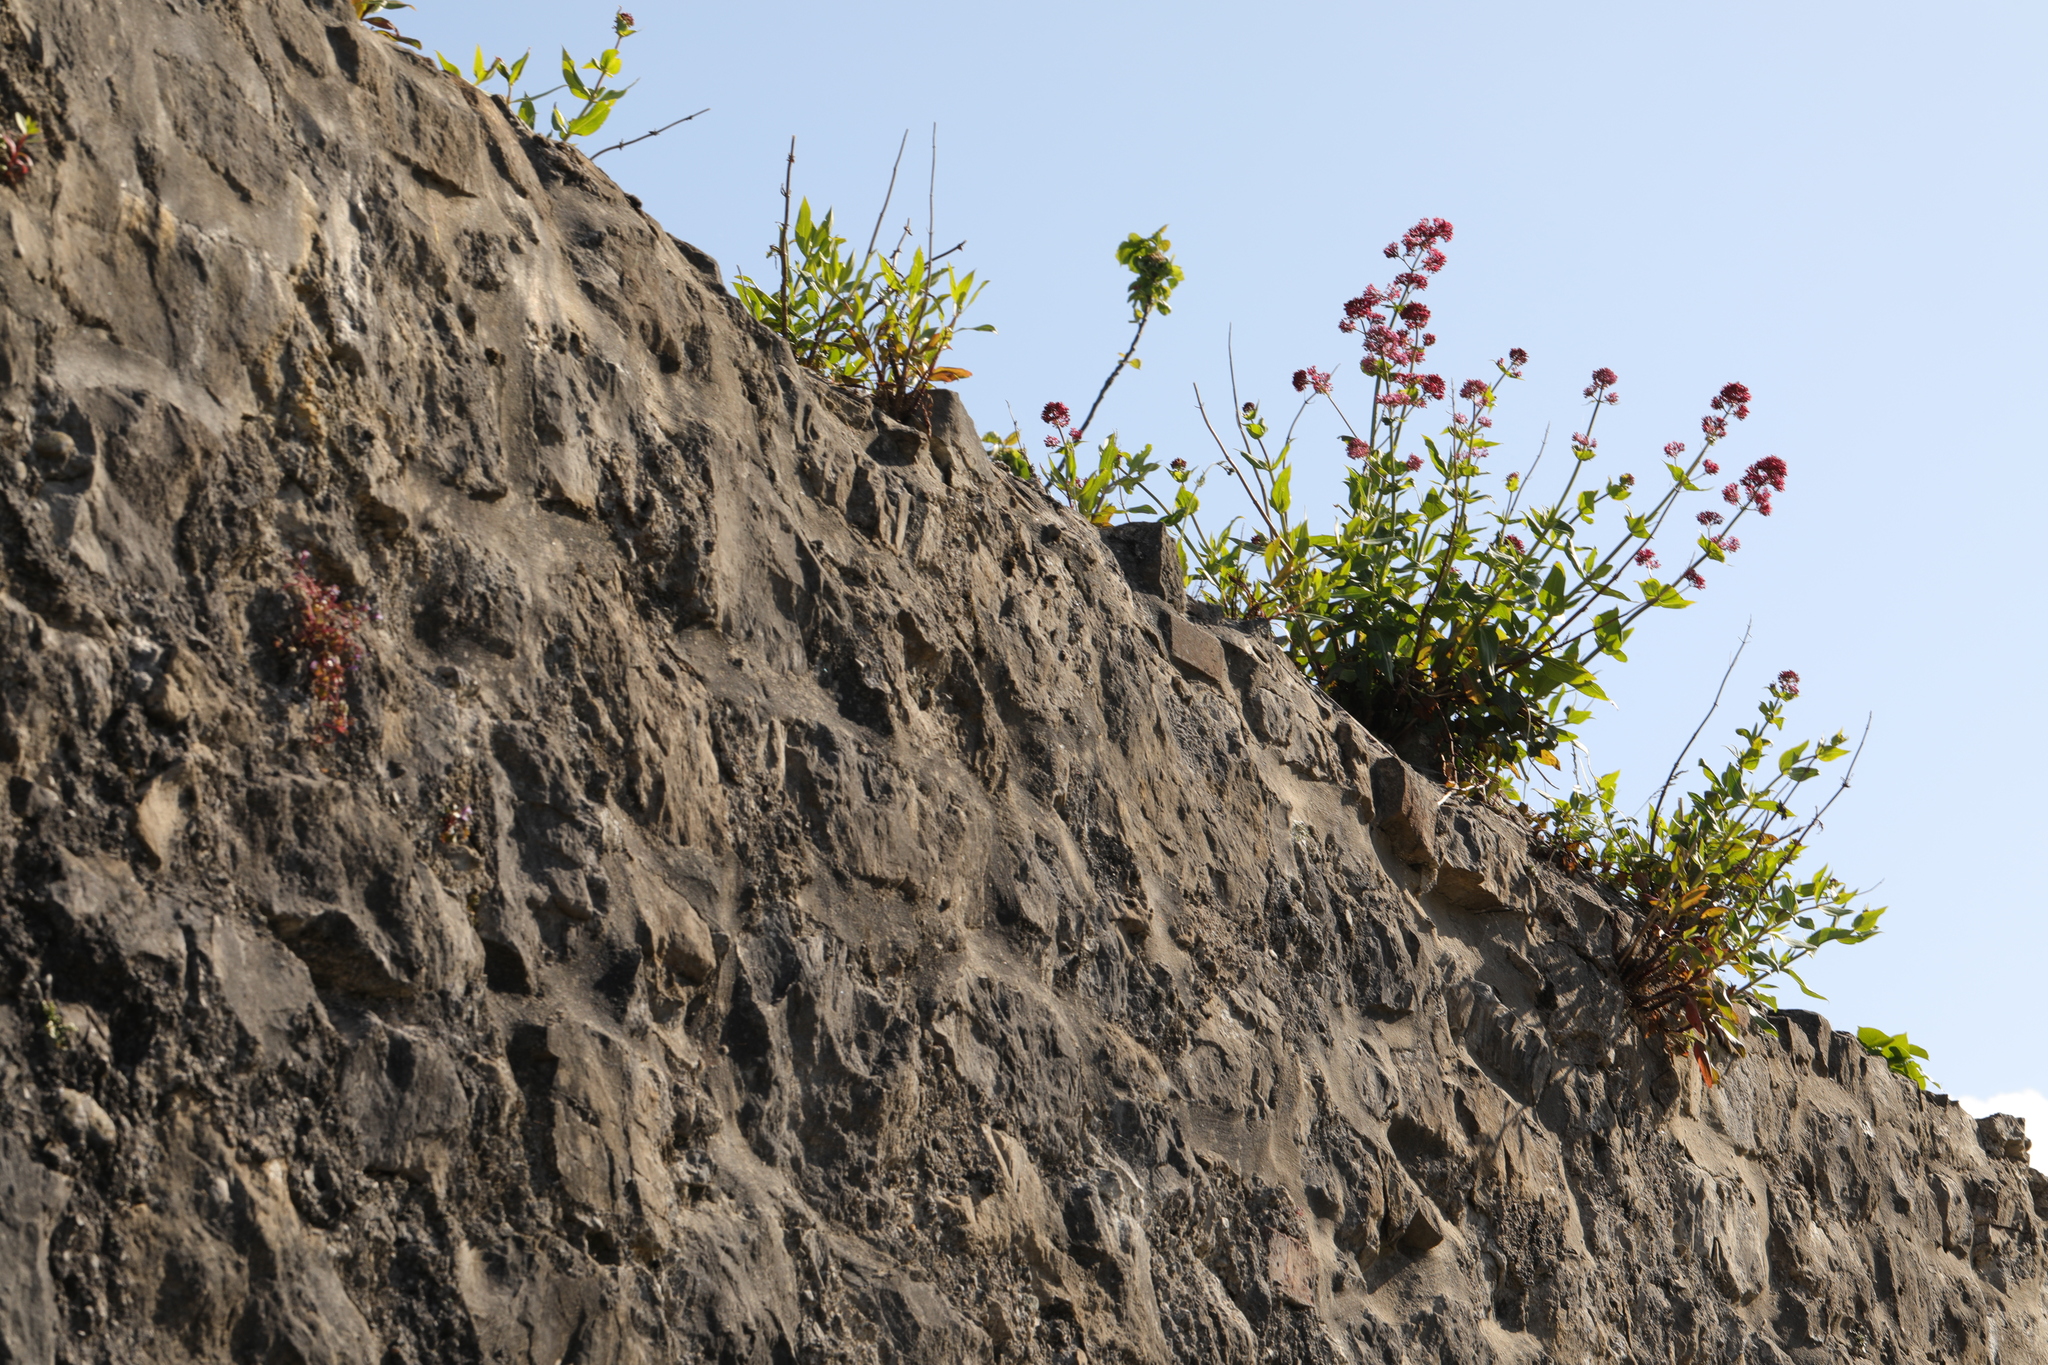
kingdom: Plantae
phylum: Tracheophyta
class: Magnoliopsida
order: Dipsacales
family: Caprifoliaceae
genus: Centranthus
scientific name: Centranthus ruber
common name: Red valerian
